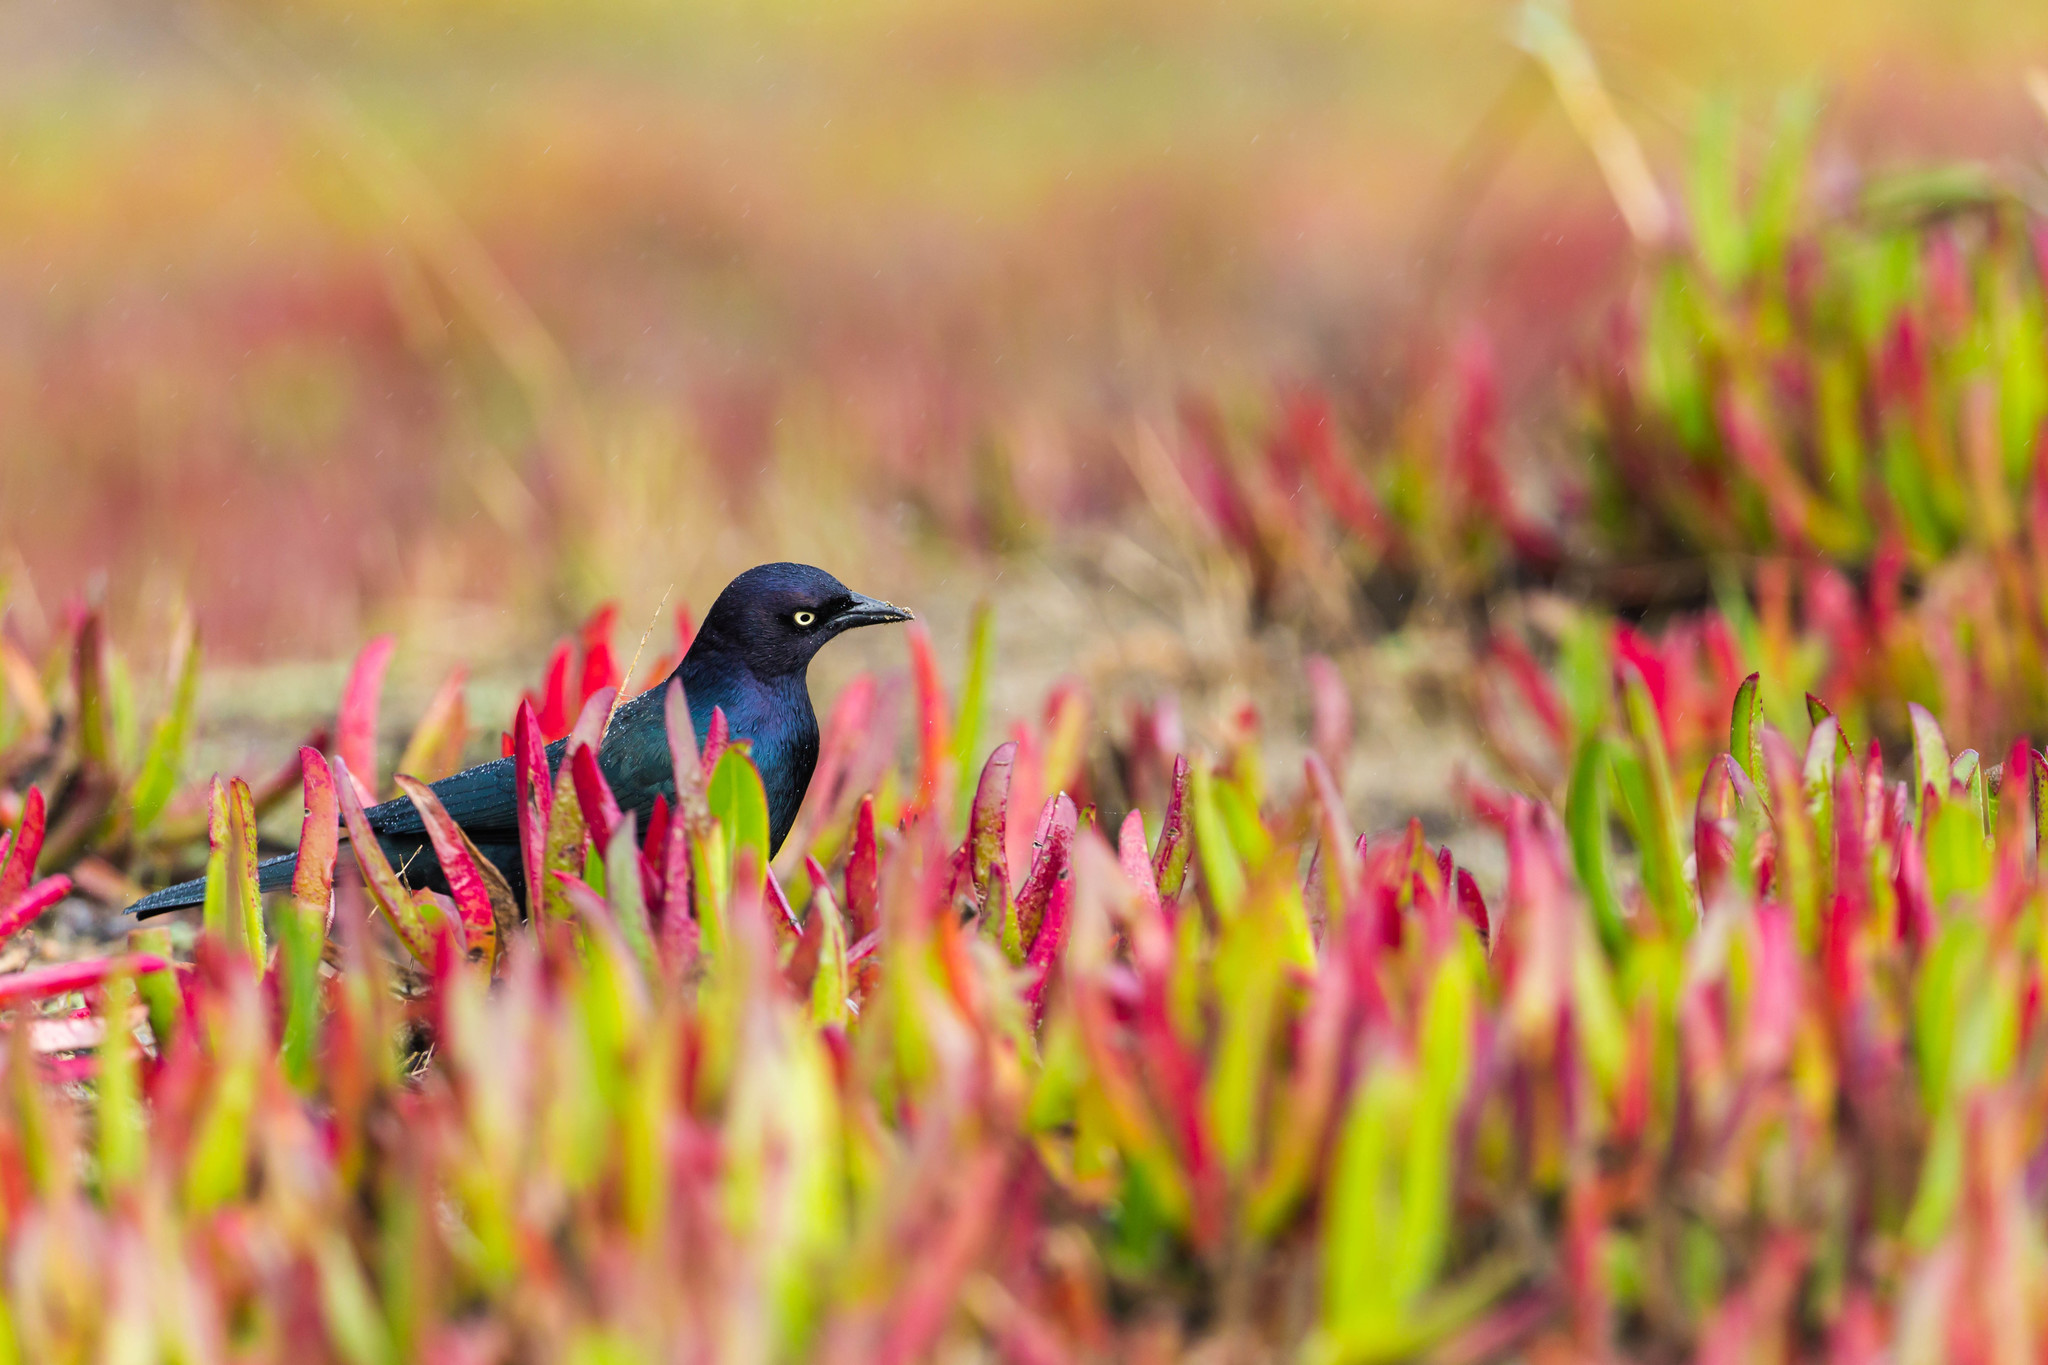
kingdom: Animalia
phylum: Chordata
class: Aves
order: Passeriformes
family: Icteridae
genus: Euphagus
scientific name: Euphagus cyanocephalus
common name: Brewer's blackbird
